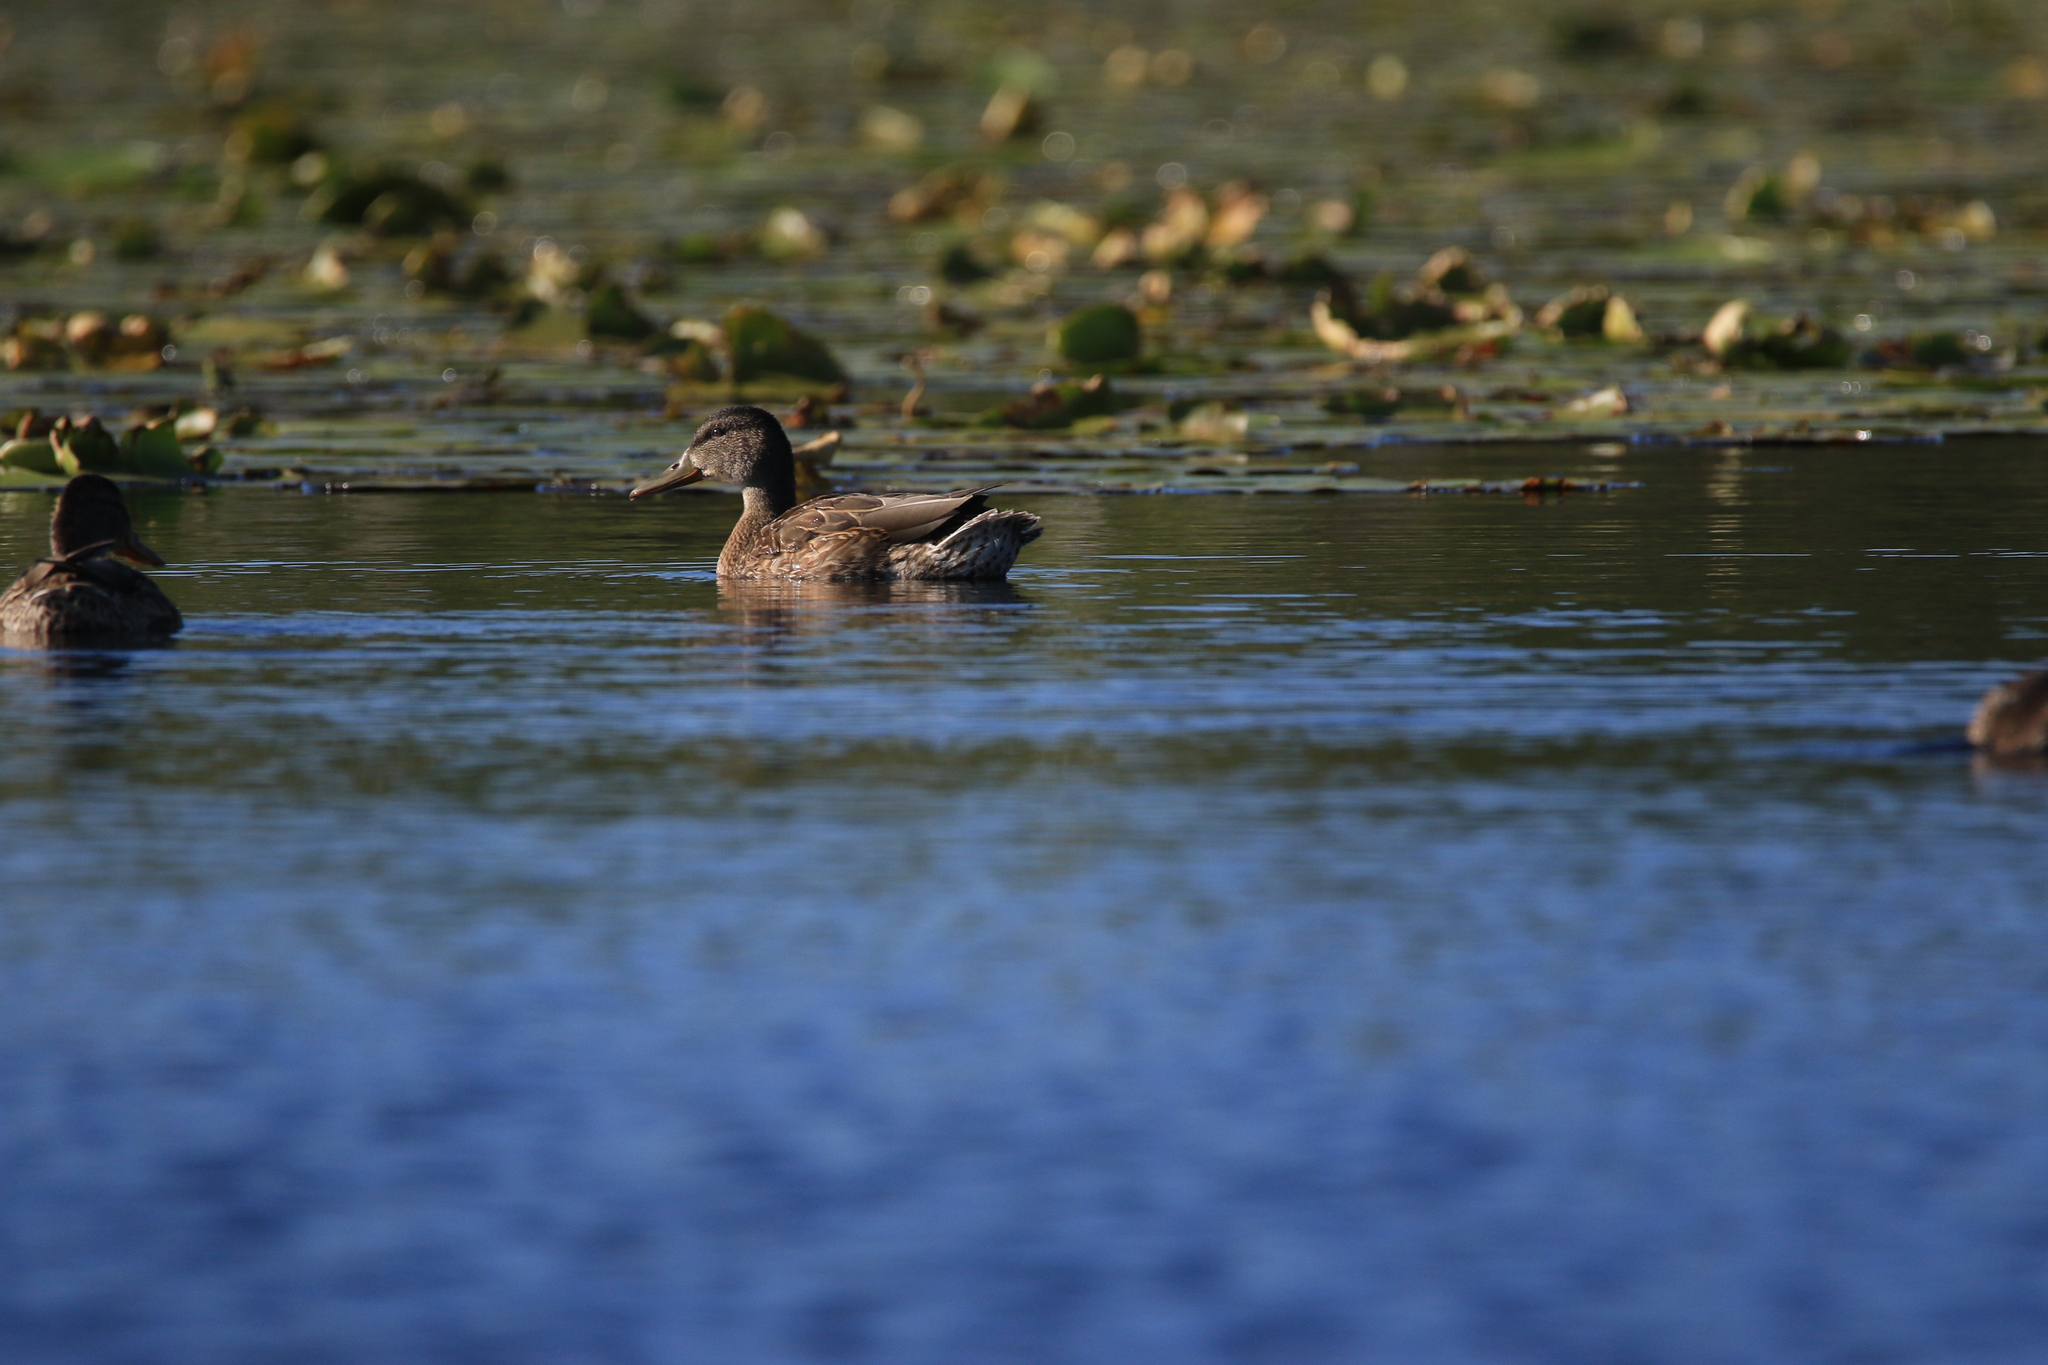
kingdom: Animalia
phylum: Chordata
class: Aves
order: Anseriformes
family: Anatidae
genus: Anas
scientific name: Anas platyrhynchos
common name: Mallard
